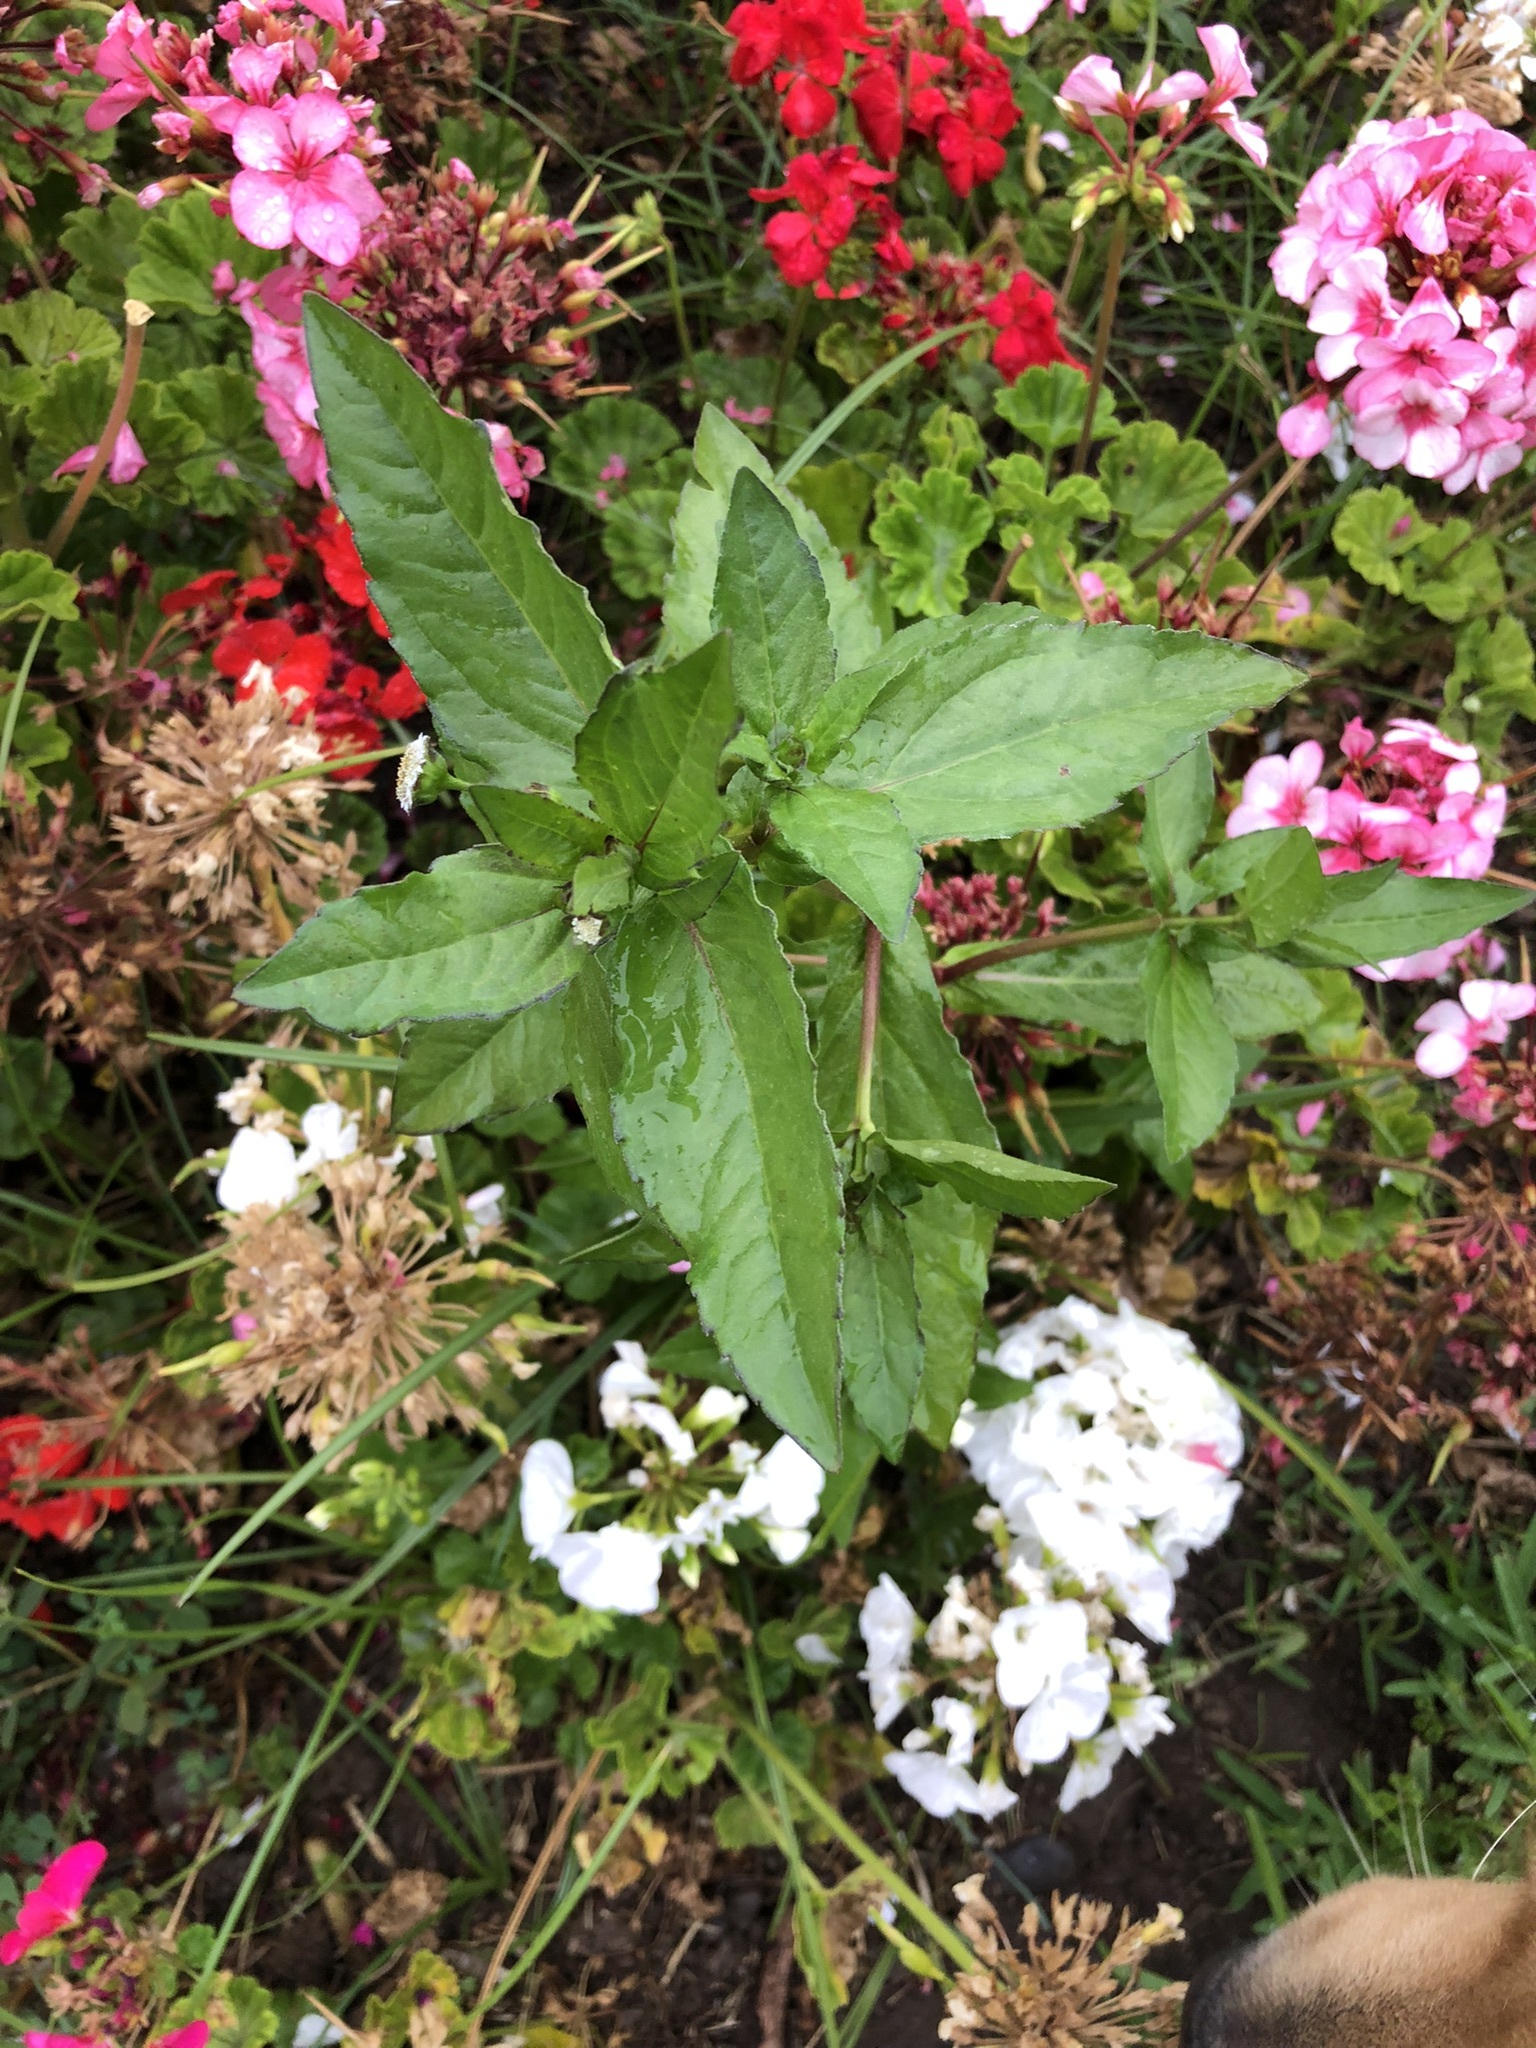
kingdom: Plantae
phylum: Tracheophyta
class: Magnoliopsida
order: Asterales
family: Asteraceae
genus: Eclipta
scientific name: Eclipta prostrata
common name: False daisy
